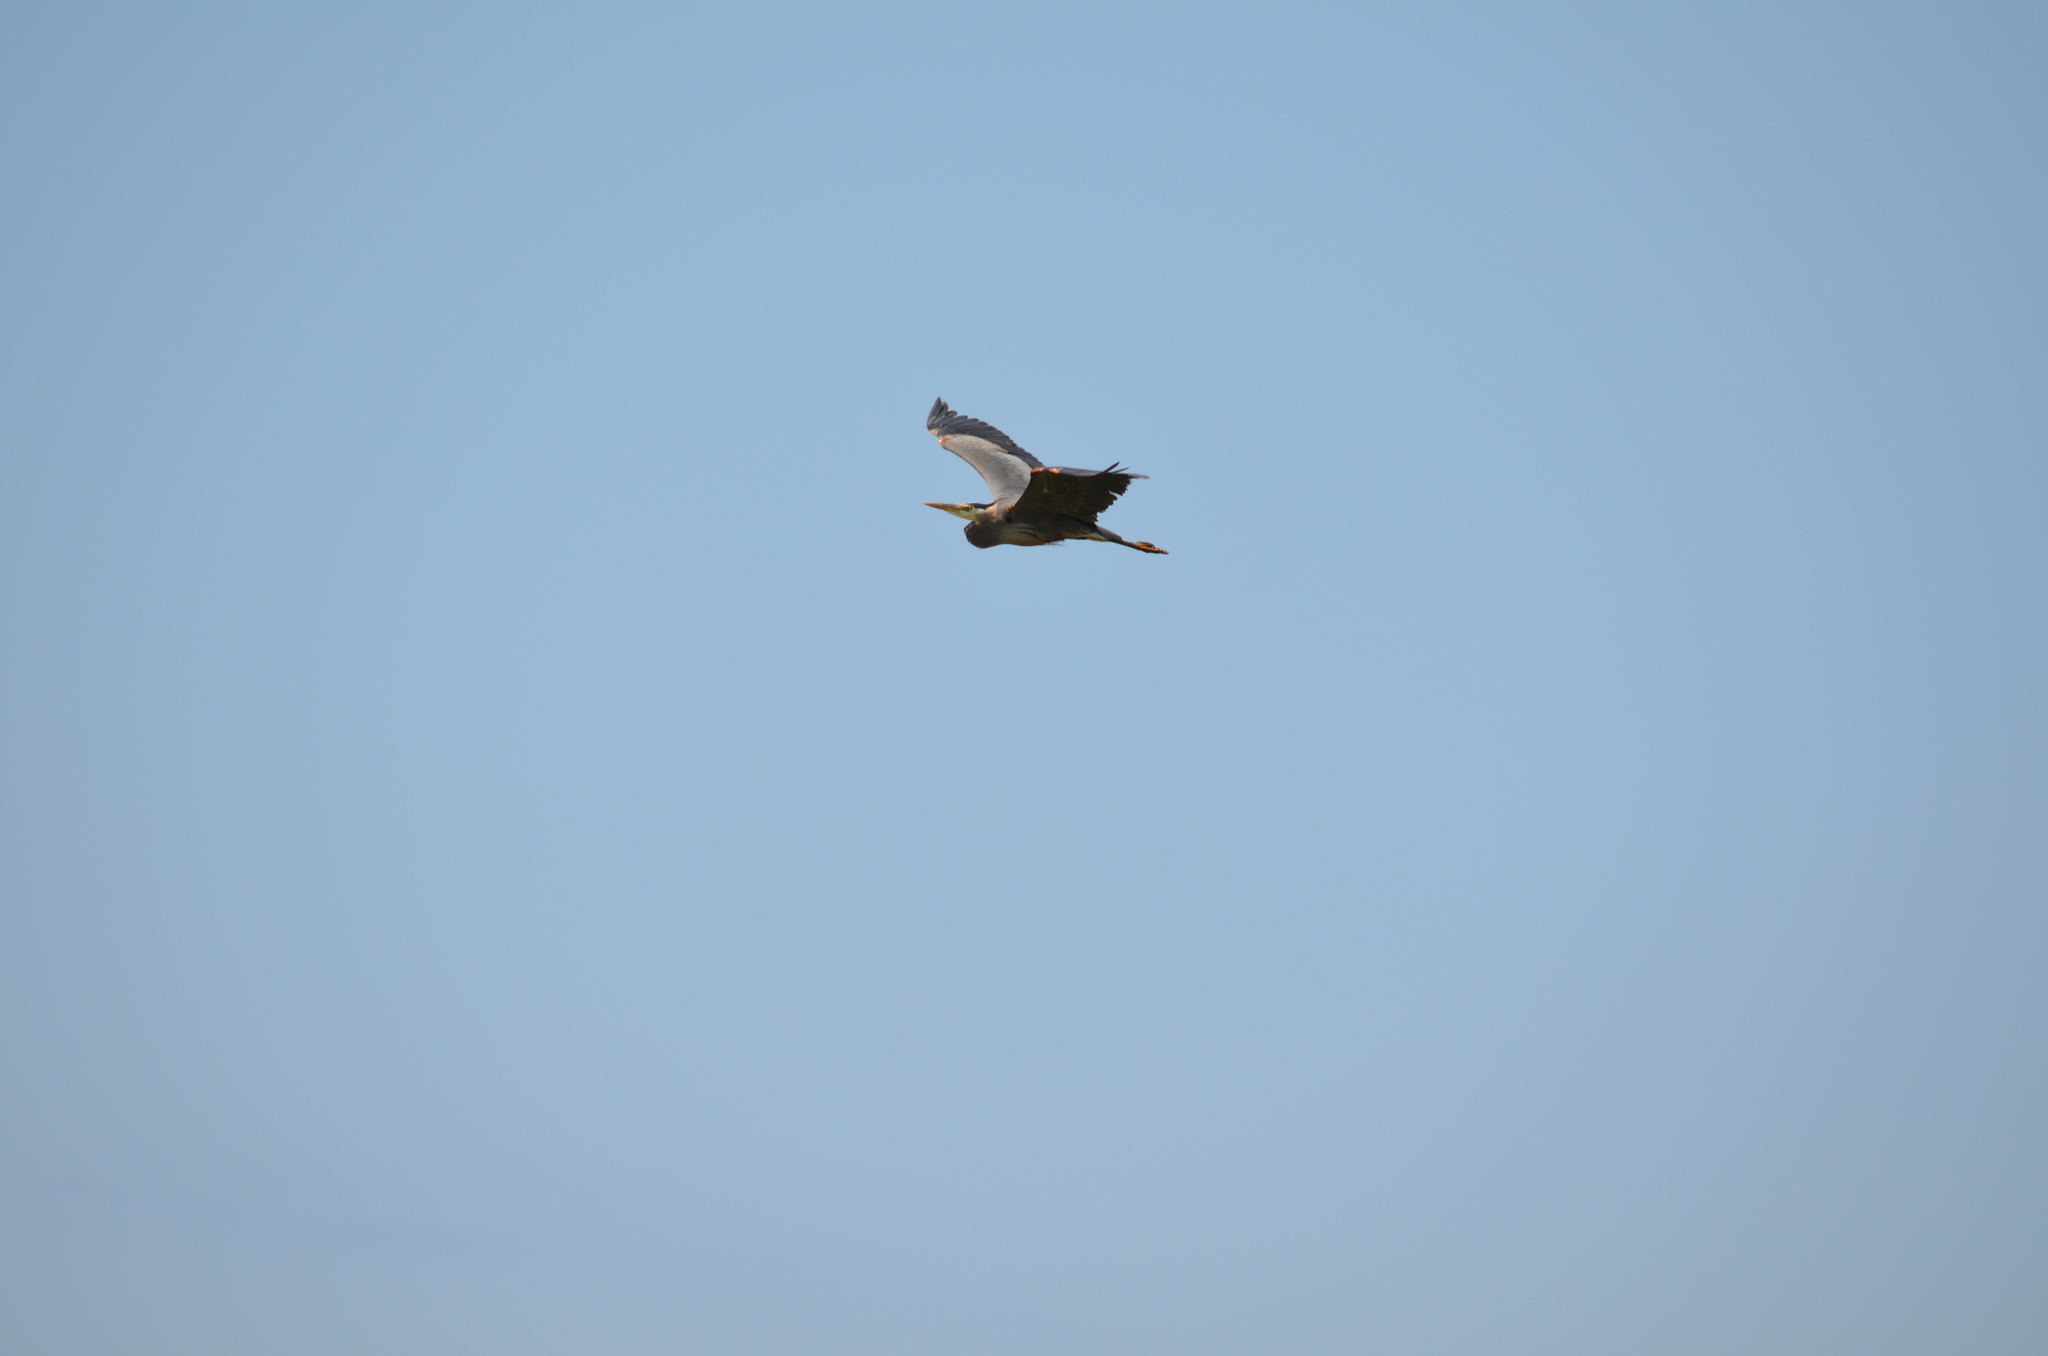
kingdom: Animalia
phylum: Chordata
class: Aves
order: Pelecaniformes
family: Ardeidae
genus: Ardea
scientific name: Ardea herodias
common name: Great blue heron
